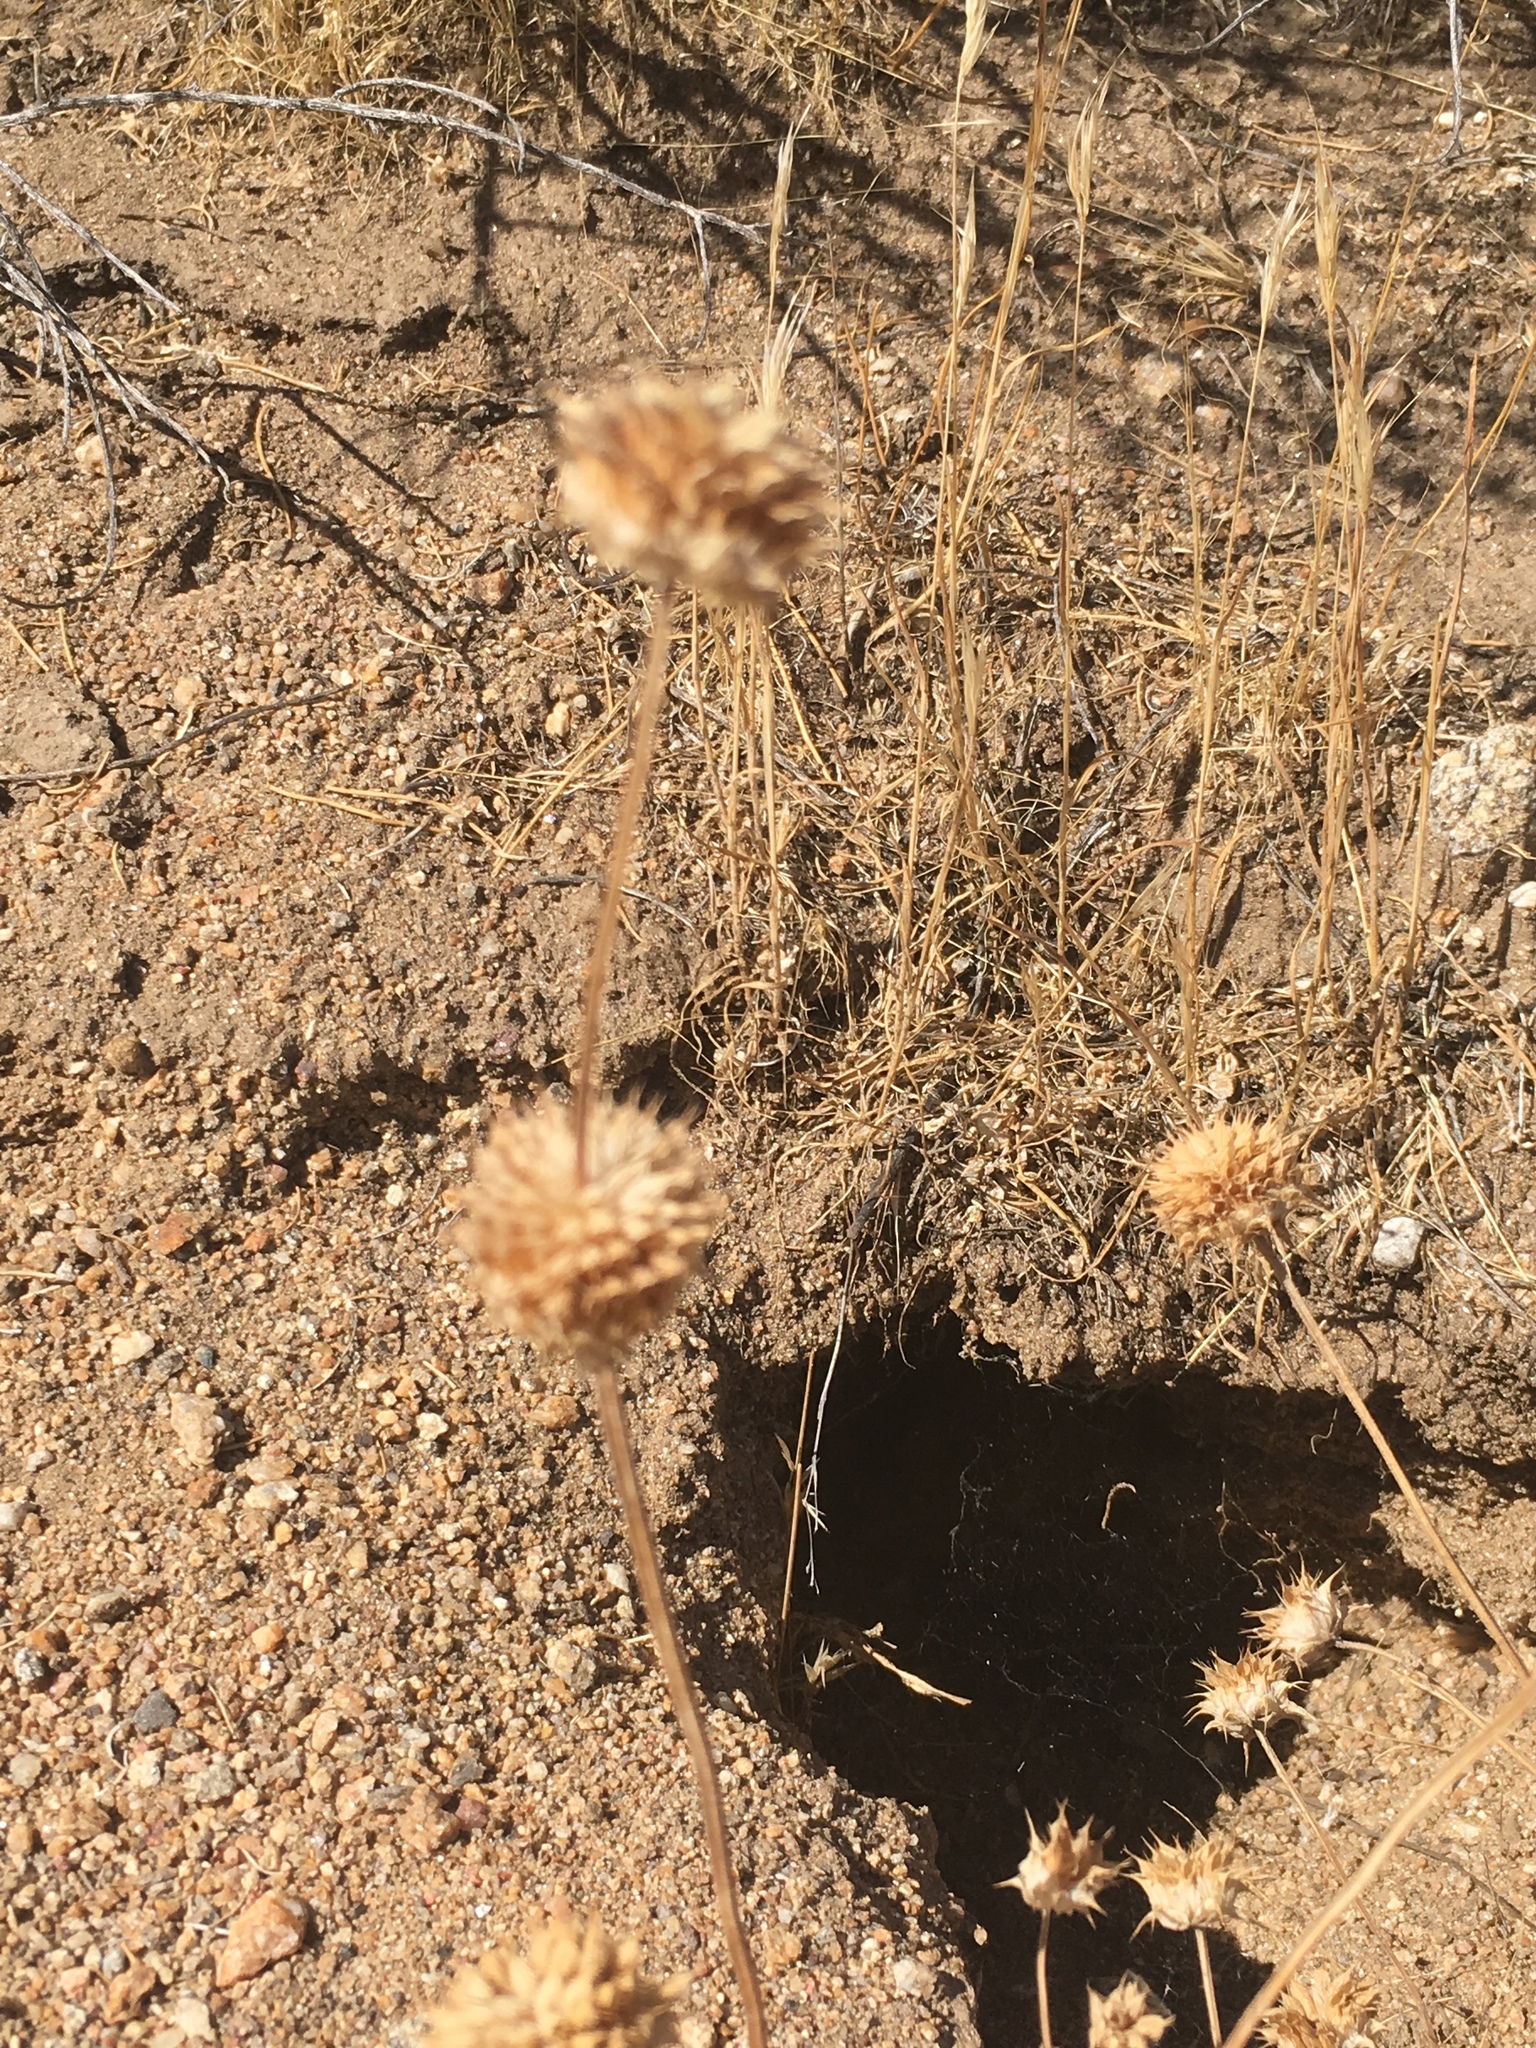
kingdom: Plantae
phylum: Tracheophyta
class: Magnoliopsida
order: Lamiales
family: Lamiaceae
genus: Salvia
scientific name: Salvia columbariae
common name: Chia
